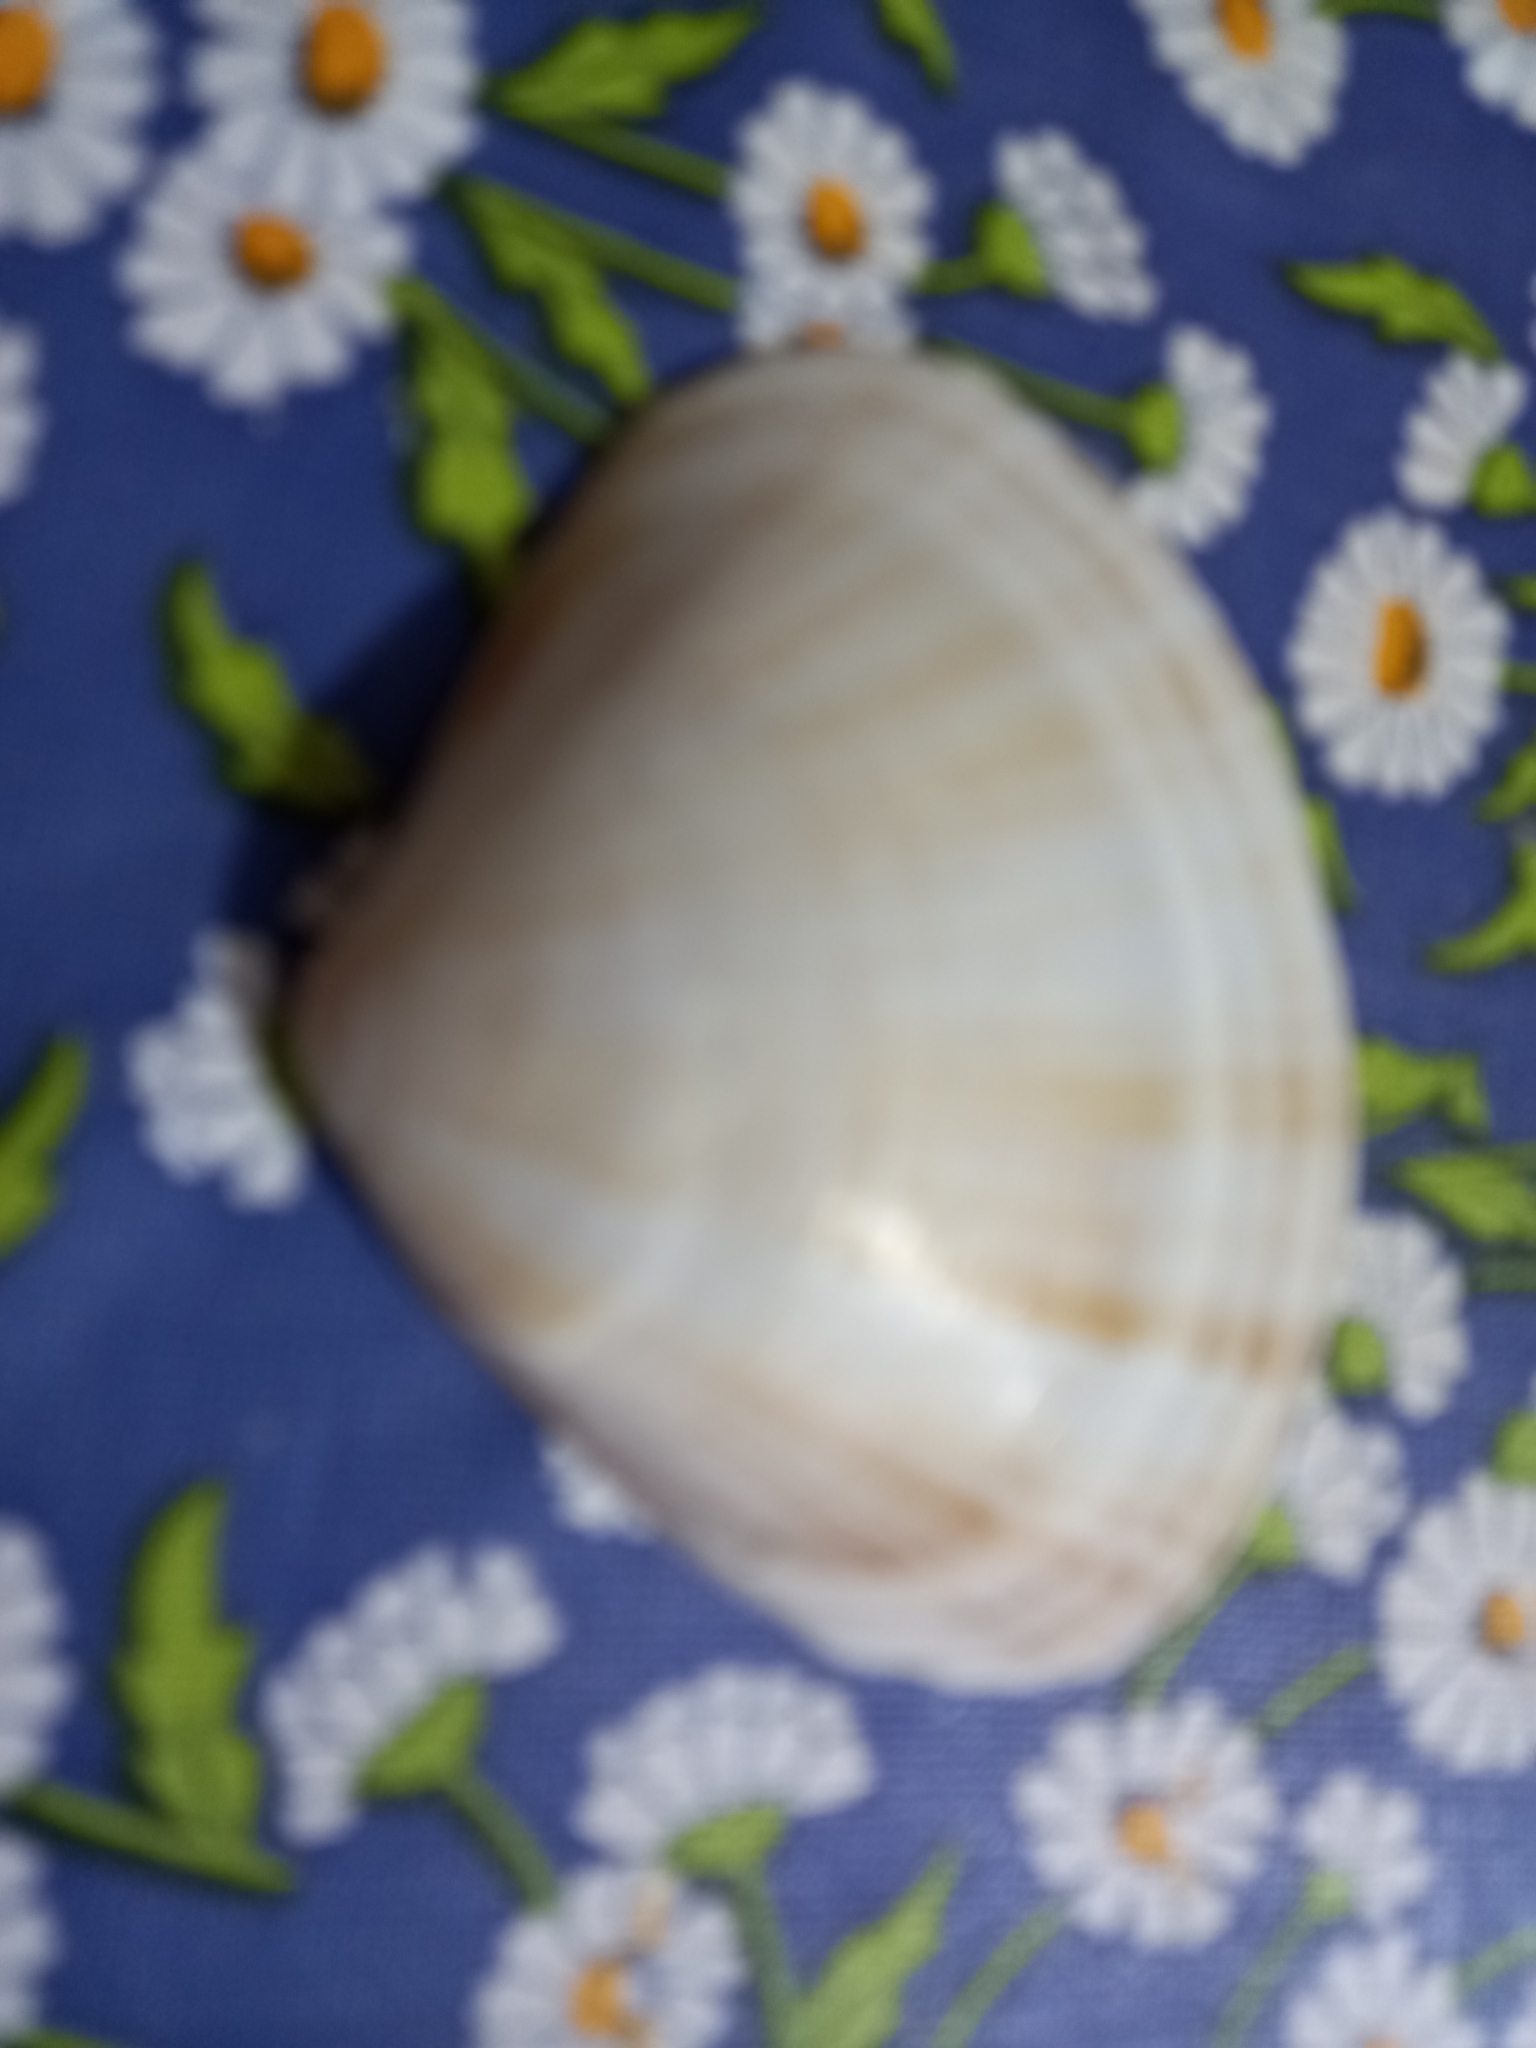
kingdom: Animalia
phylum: Mollusca
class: Bivalvia
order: Venerida
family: Mactridae
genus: Mactra
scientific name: Mactra stultorum
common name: Rayed trough shell
